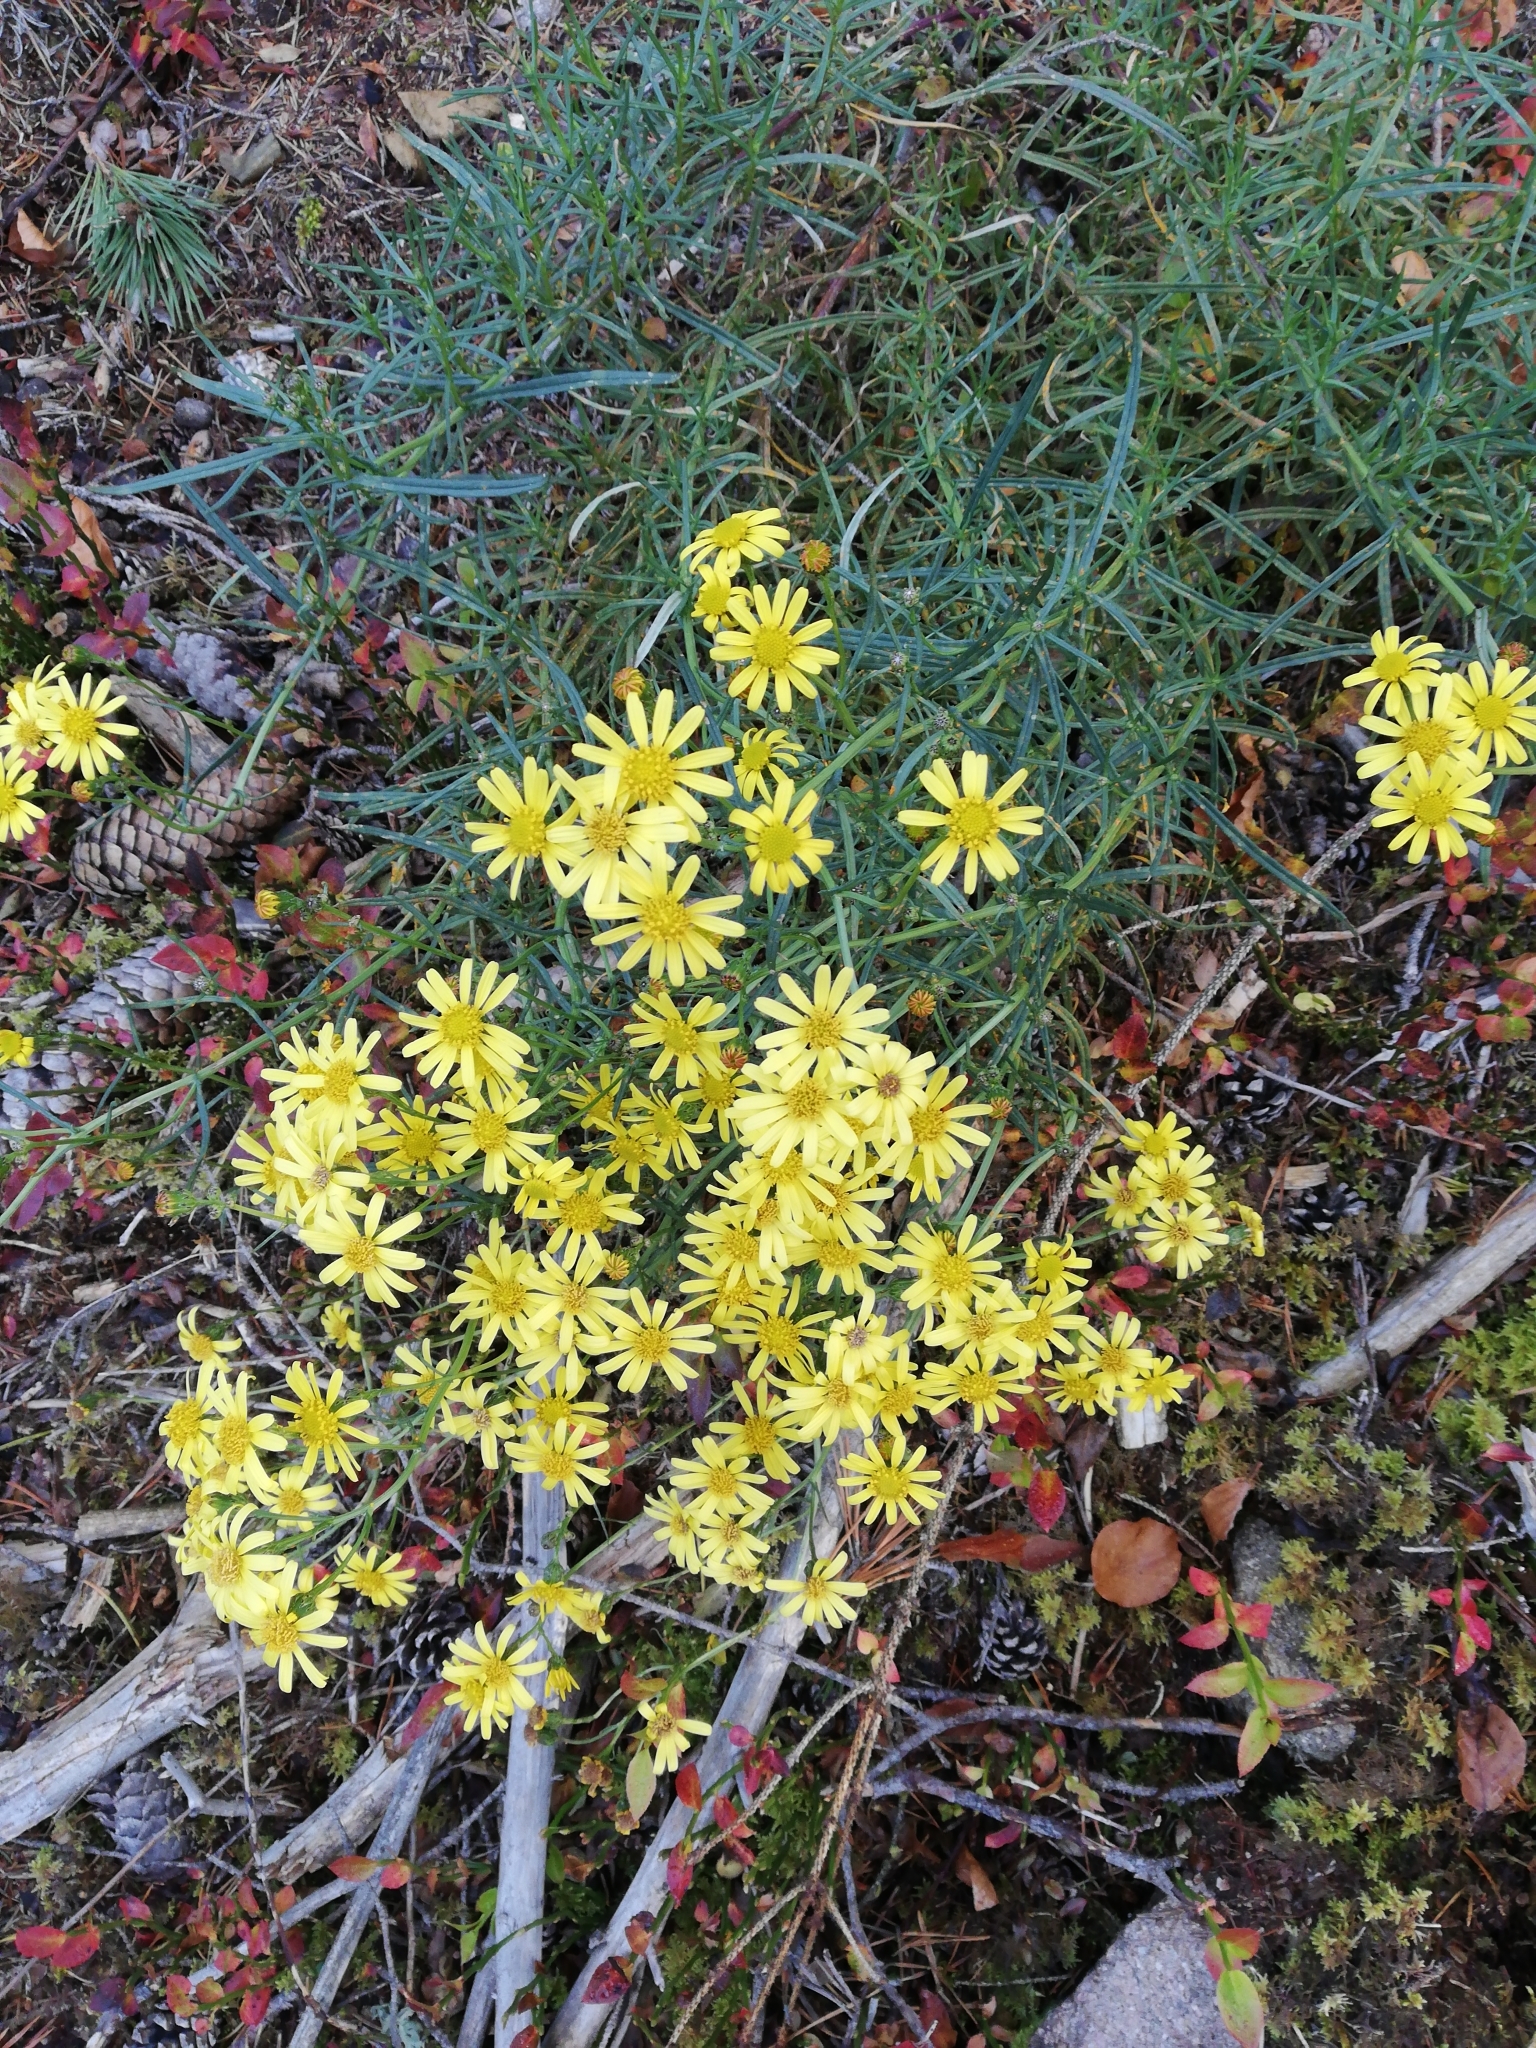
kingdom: Plantae
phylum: Tracheophyta
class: Magnoliopsida
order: Asterales
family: Asteraceae
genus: Senecio
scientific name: Senecio inaequidens
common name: Narrow-leaved ragwort
